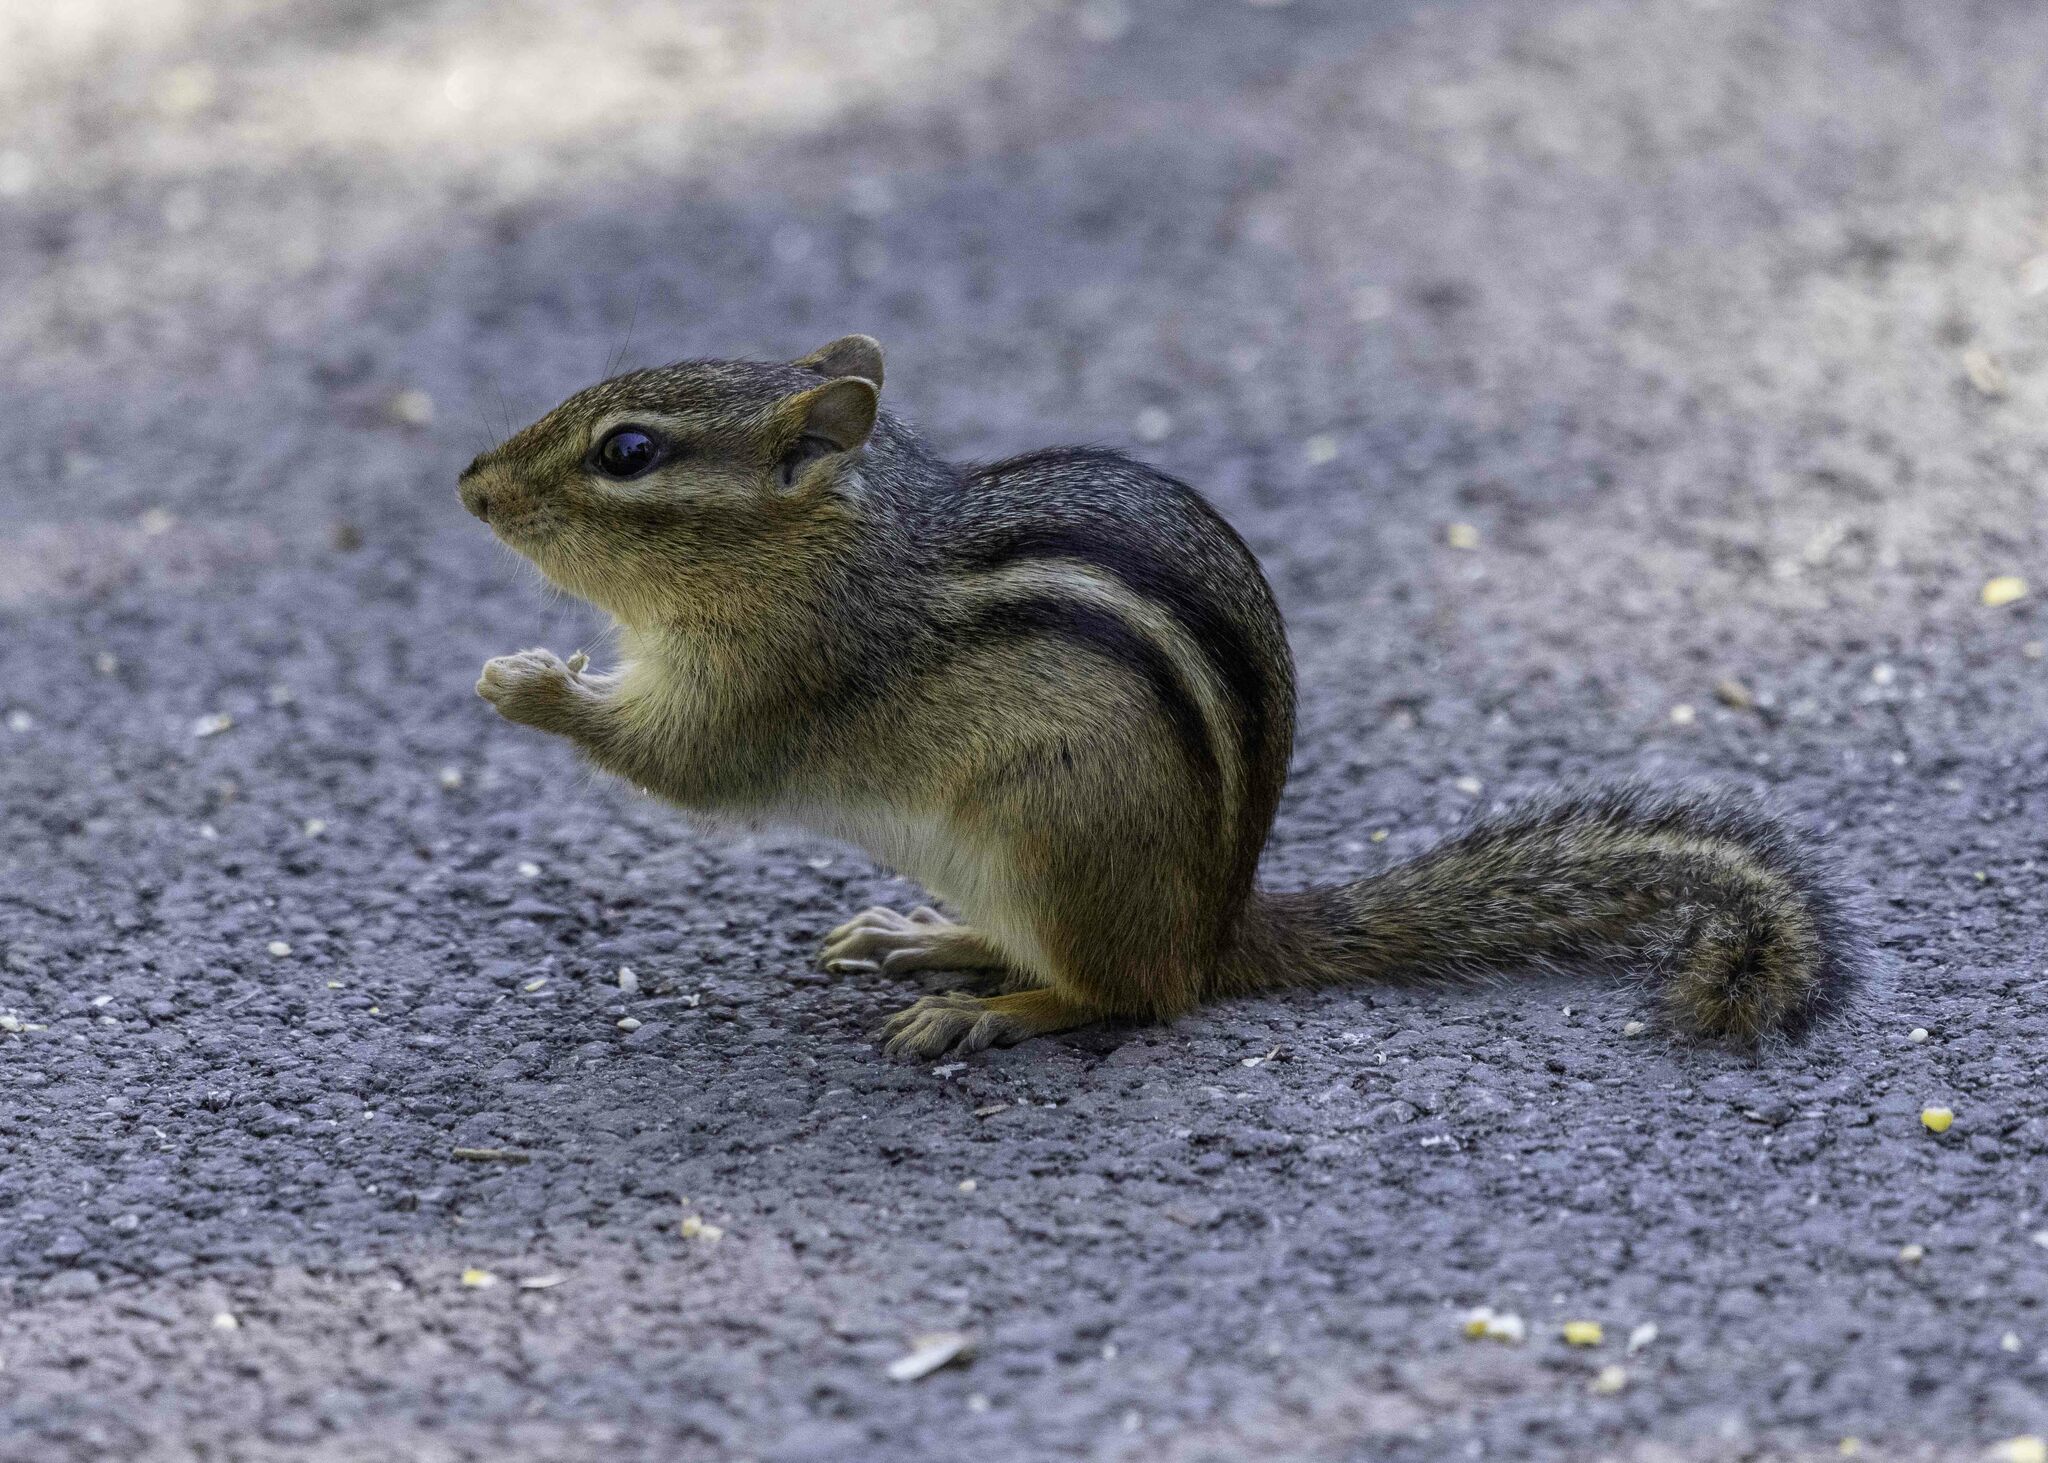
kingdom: Animalia
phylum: Chordata
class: Mammalia
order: Rodentia
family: Sciuridae
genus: Tamias
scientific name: Tamias striatus
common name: Eastern chipmunk
